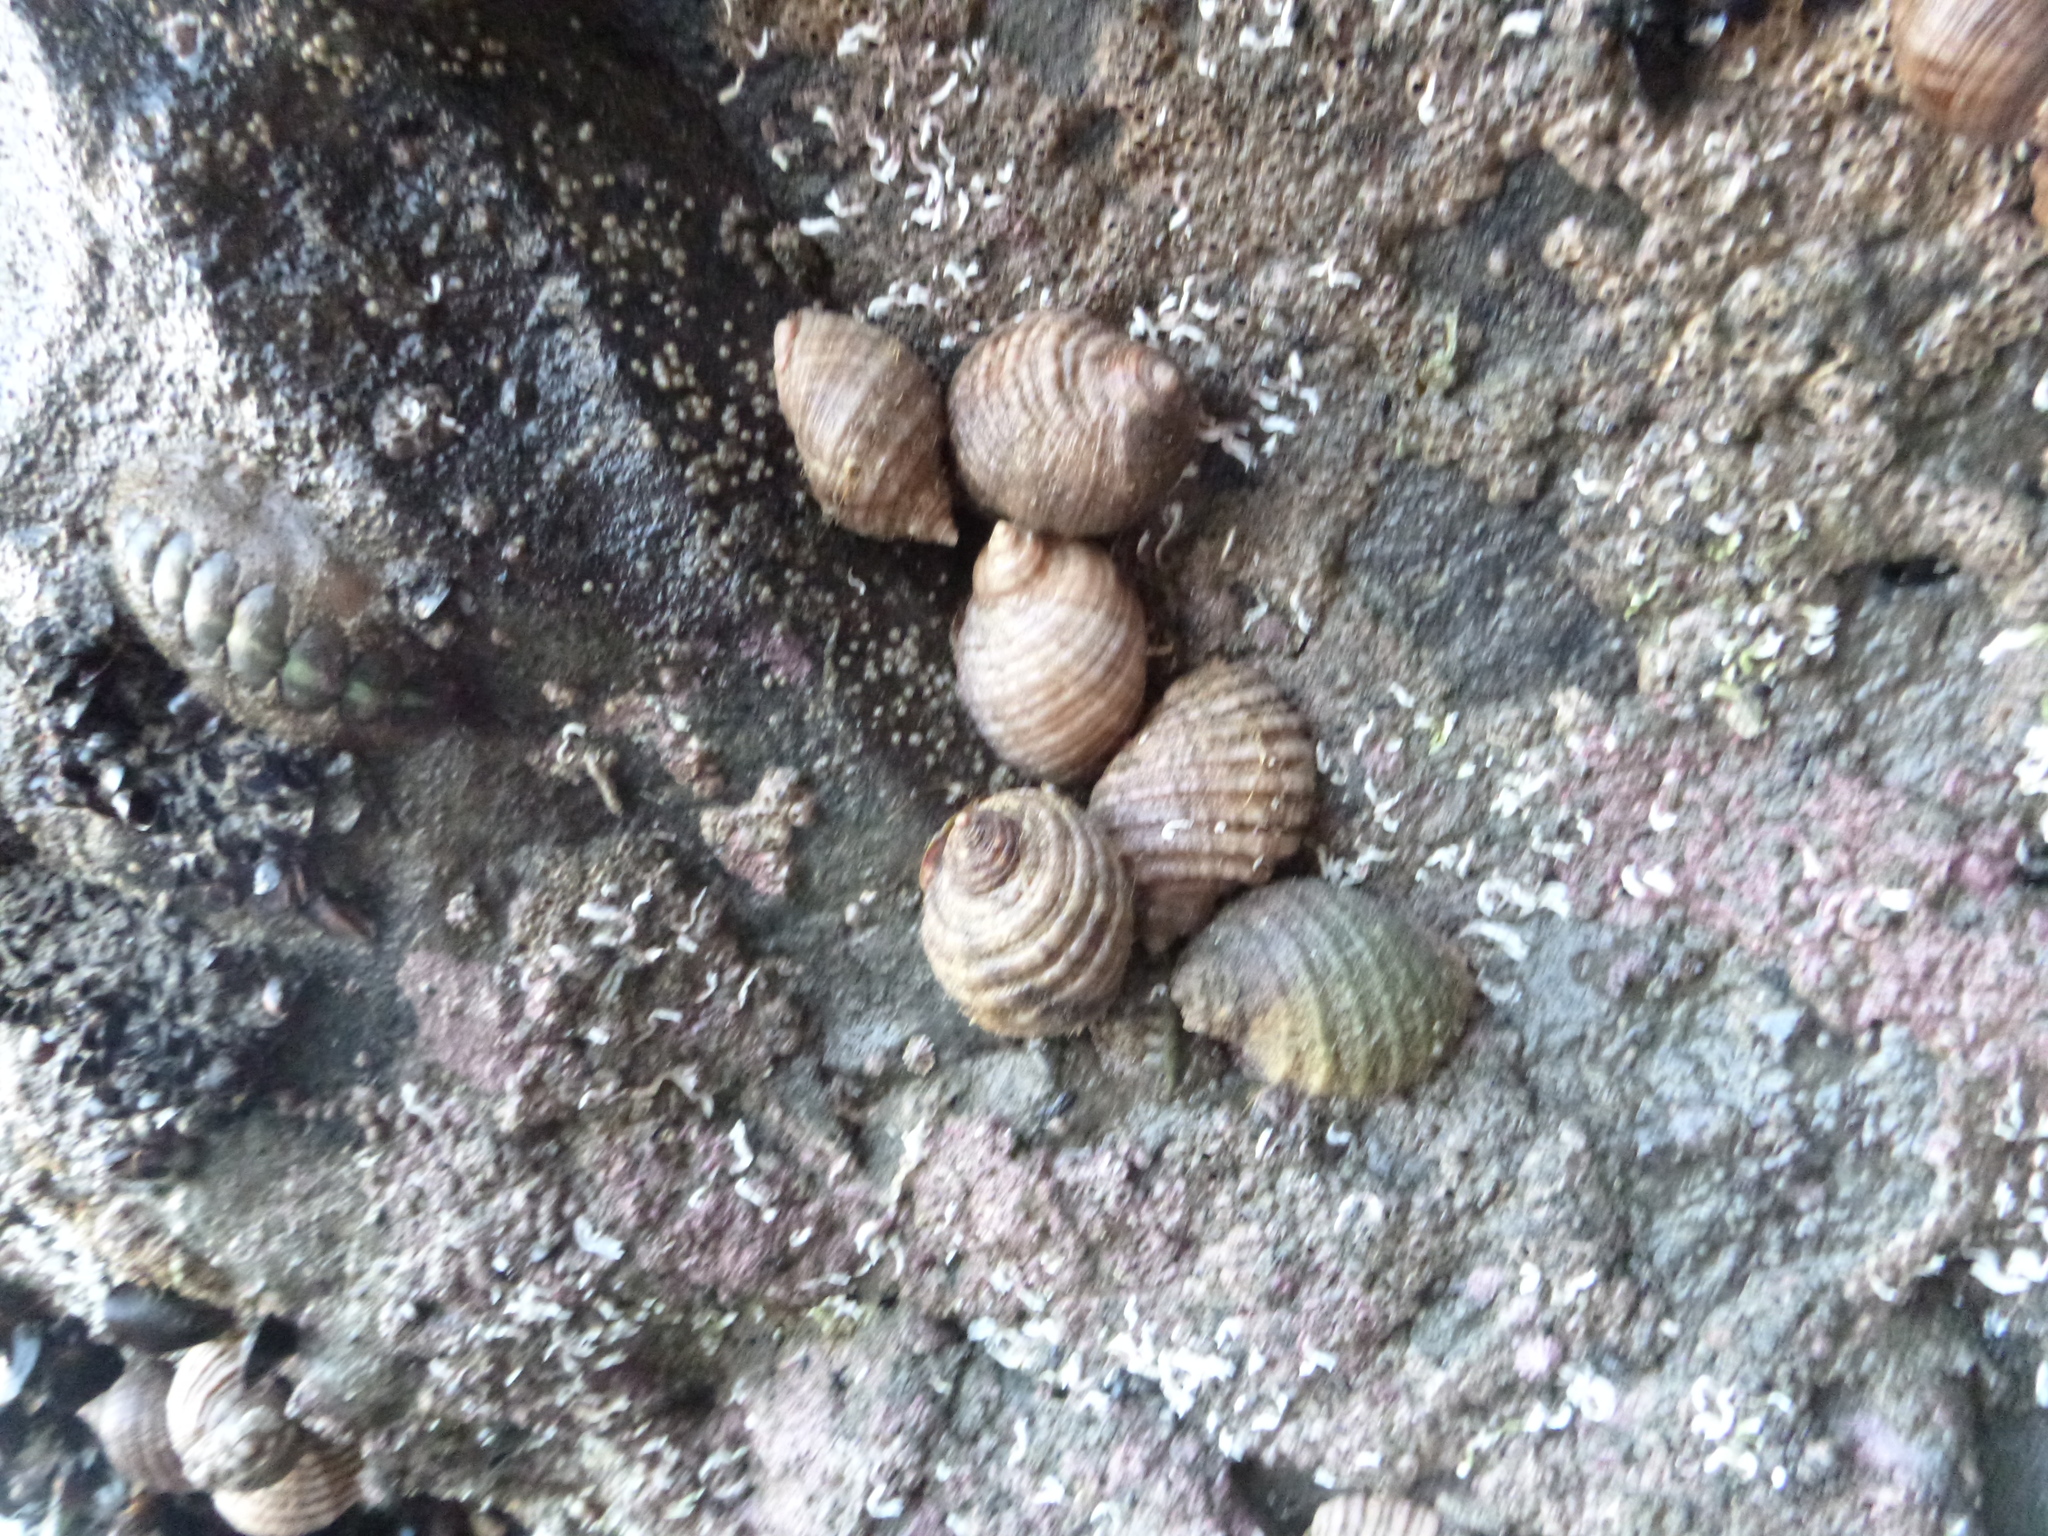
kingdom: Animalia
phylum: Mollusca
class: Gastropoda
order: Neogastropoda
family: Muricidae
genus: Dicathais
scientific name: Dicathais orbita
